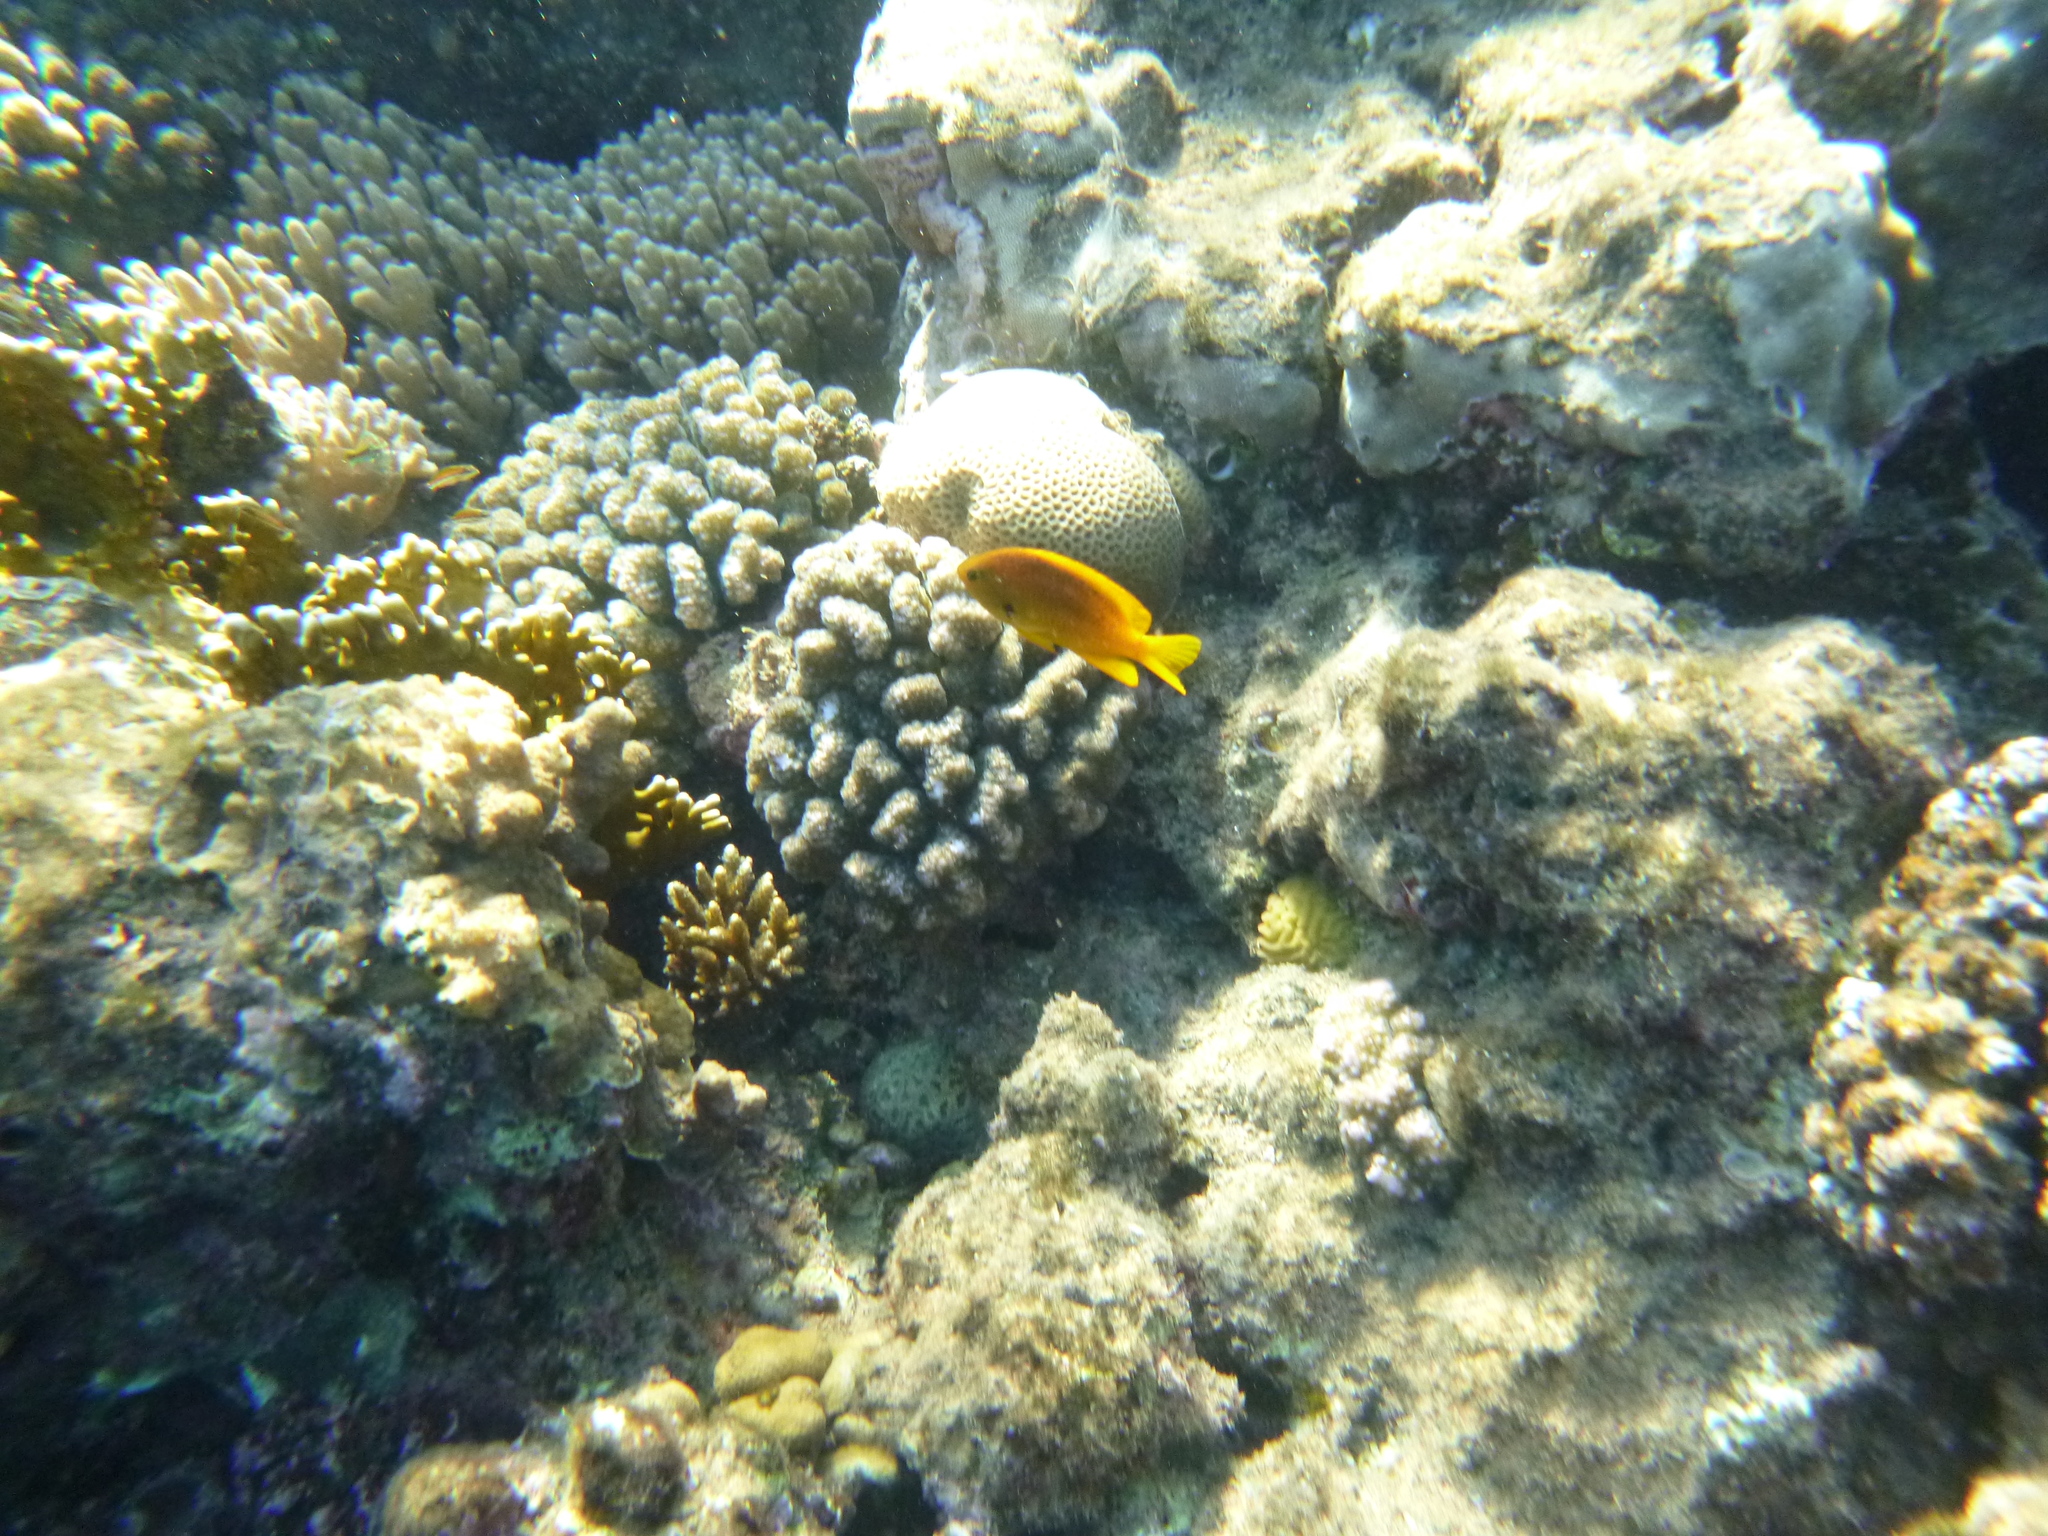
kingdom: Animalia
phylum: Chordata
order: Perciformes
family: Pomacentridae
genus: Pomacentrus
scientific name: Pomacentrus sulfureus
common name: Sulfur damsel
